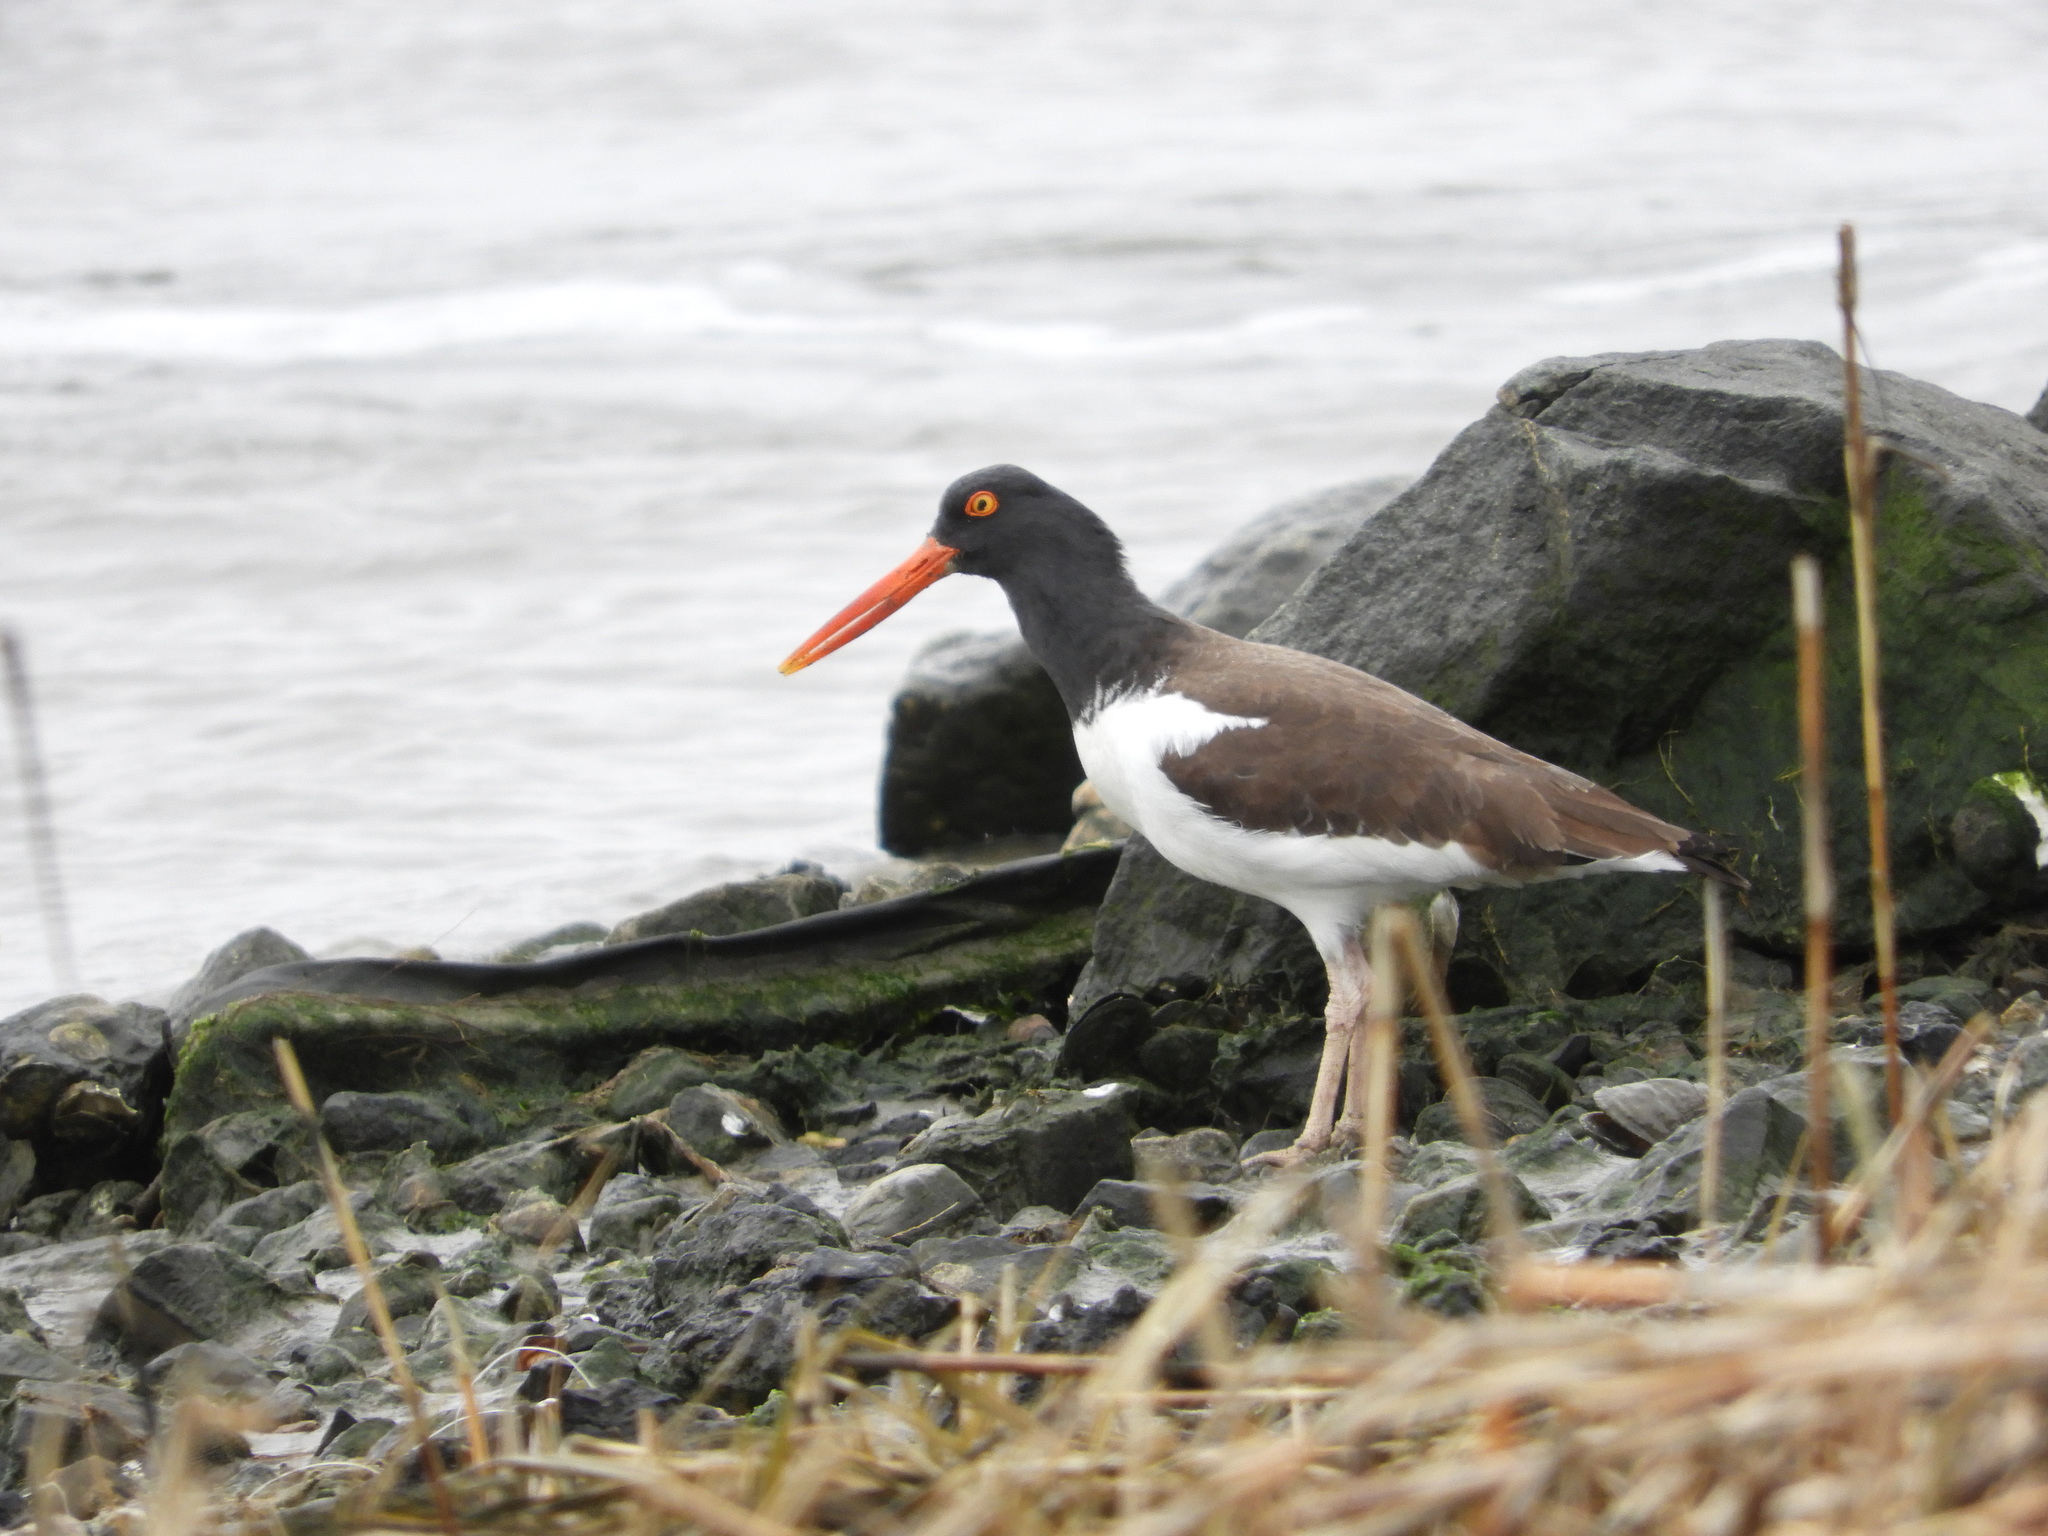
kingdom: Animalia
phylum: Chordata
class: Aves
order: Charadriiformes
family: Haematopodidae
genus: Haematopus
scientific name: Haematopus palliatus
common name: American oystercatcher
